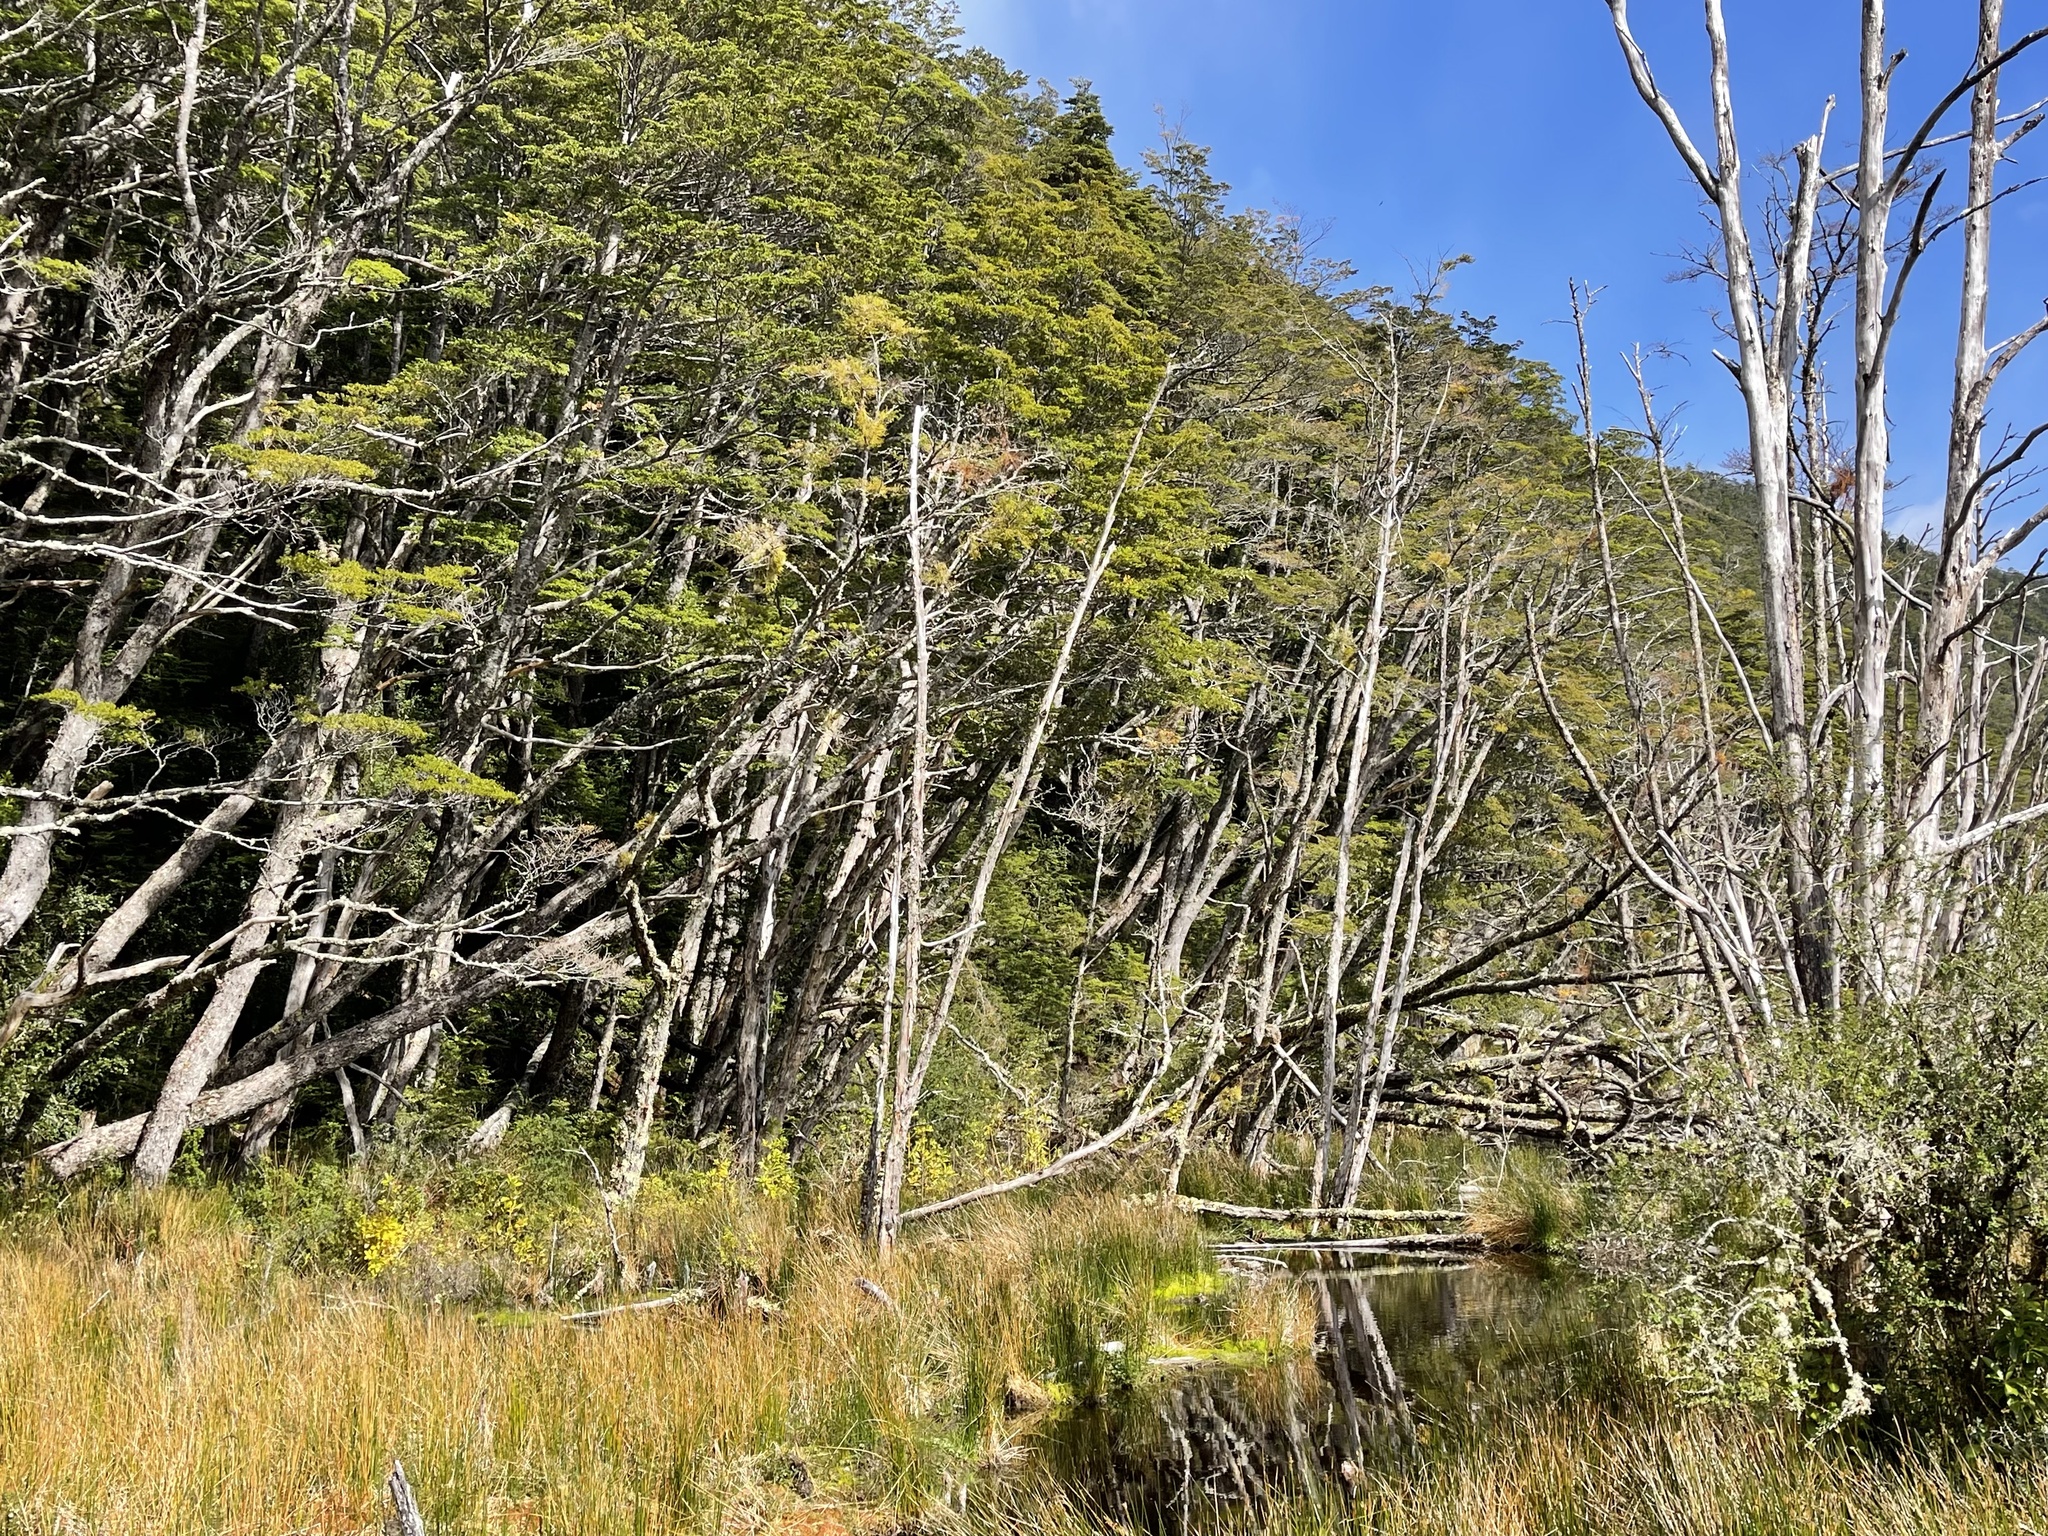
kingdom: Animalia
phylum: Chordata
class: Mammalia
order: Rodentia
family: Castoridae
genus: Castor
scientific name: Castor canadensis
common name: American beaver
